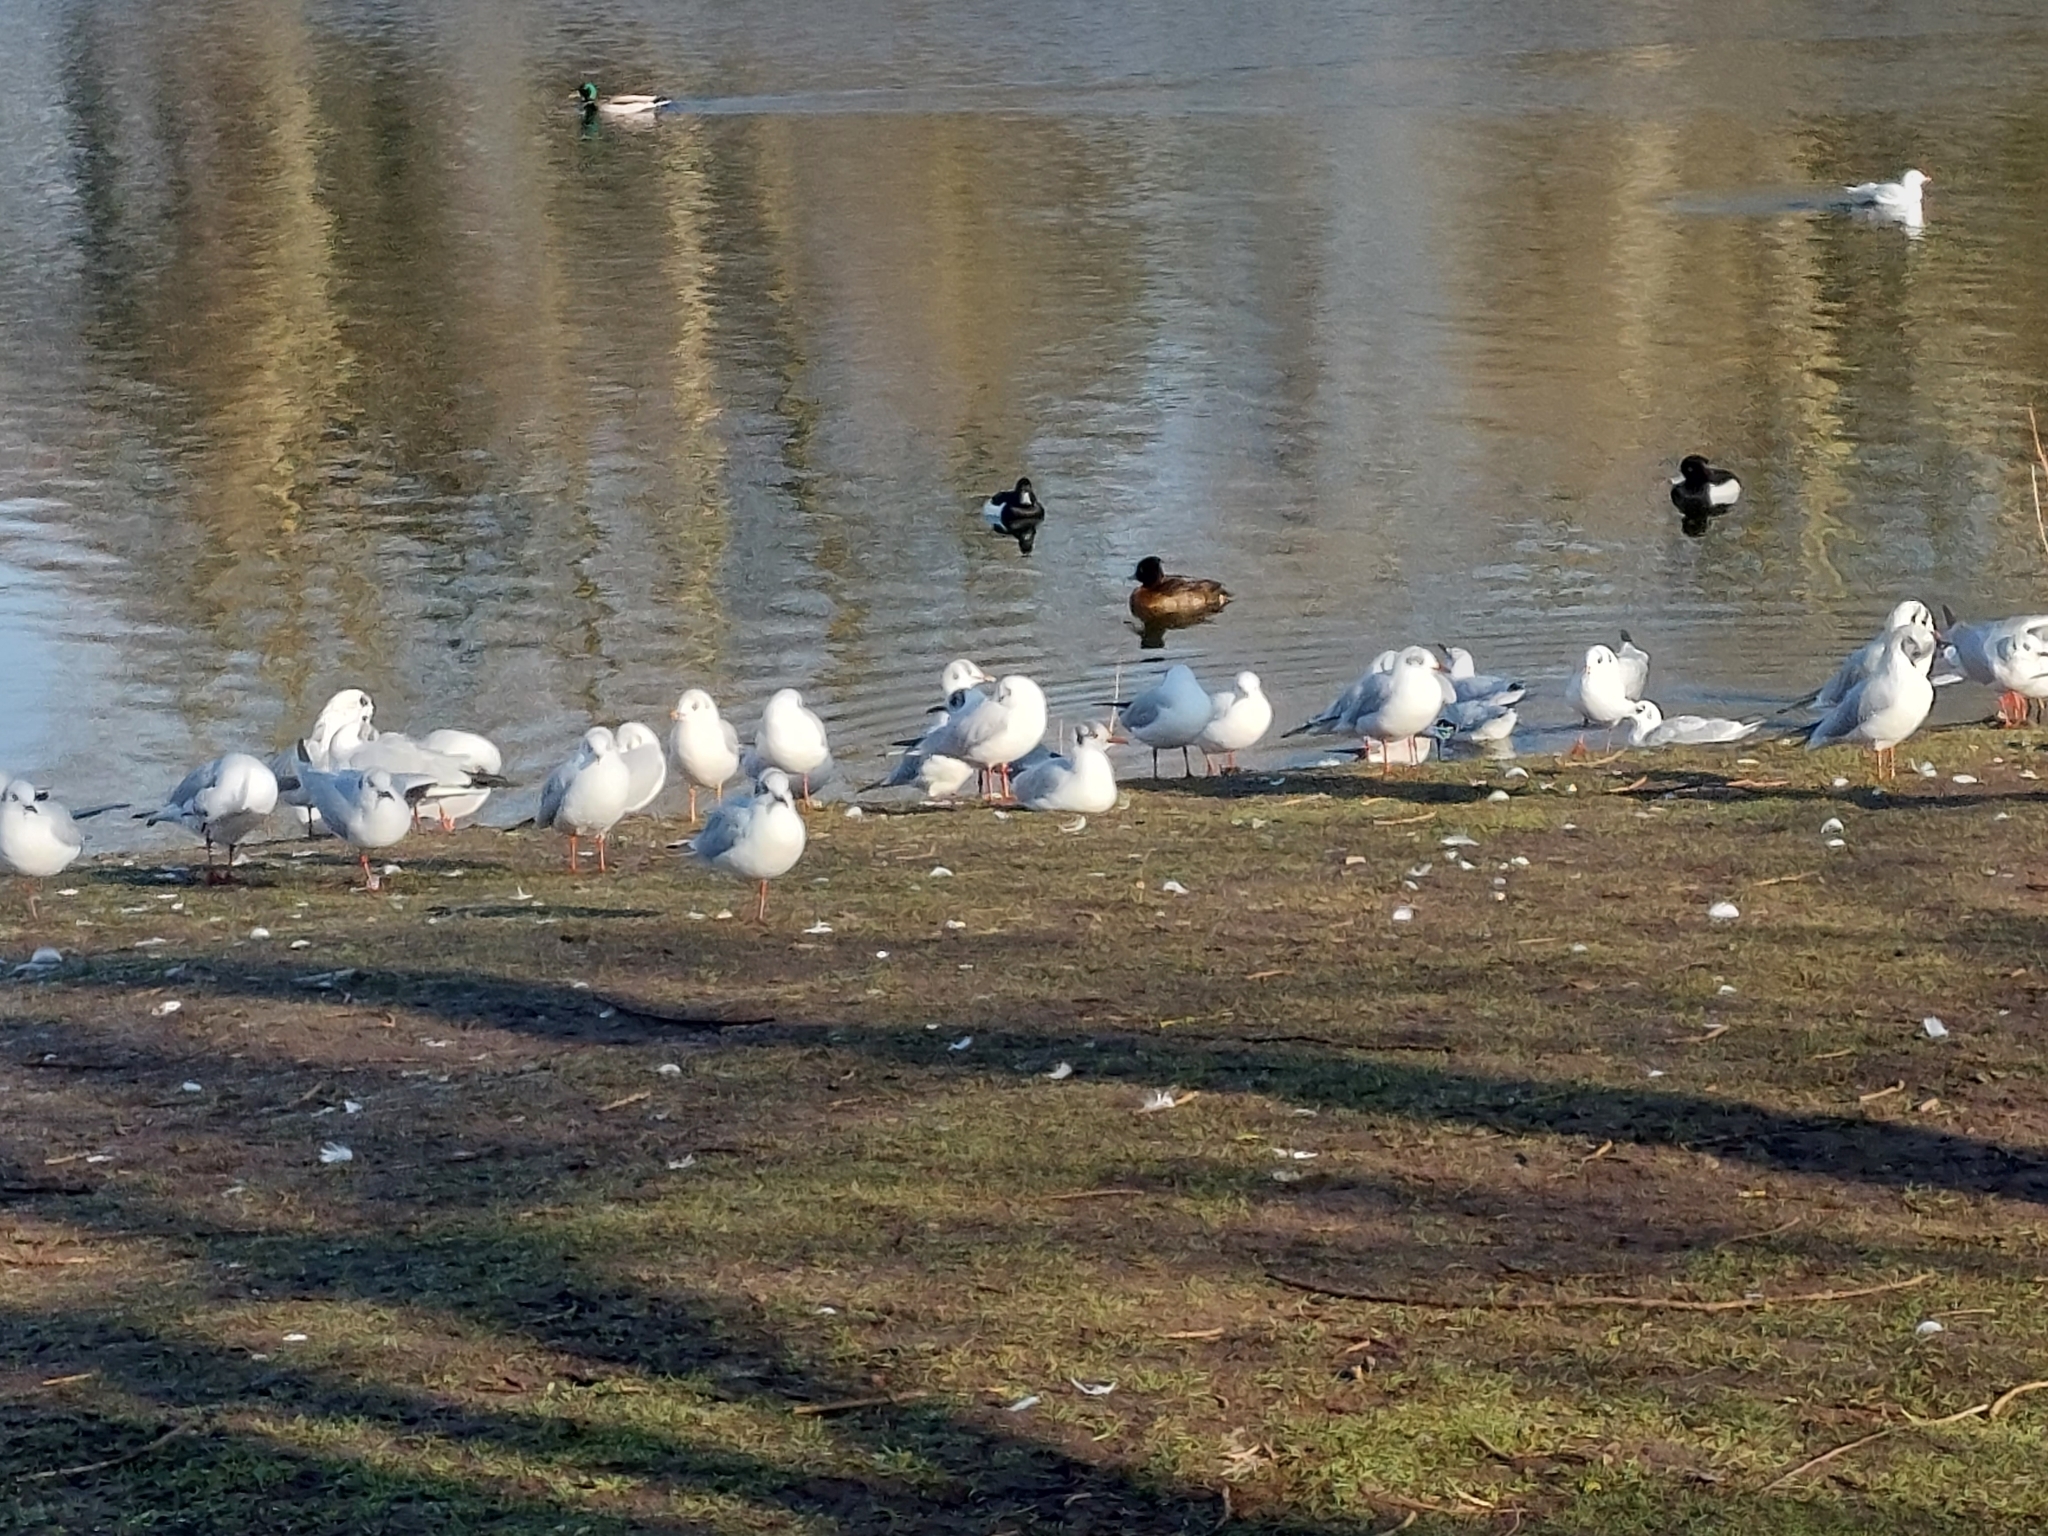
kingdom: Animalia
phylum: Chordata
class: Aves
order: Charadriiformes
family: Laridae
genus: Chroicocephalus
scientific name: Chroicocephalus ridibundus
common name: Black-headed gull
